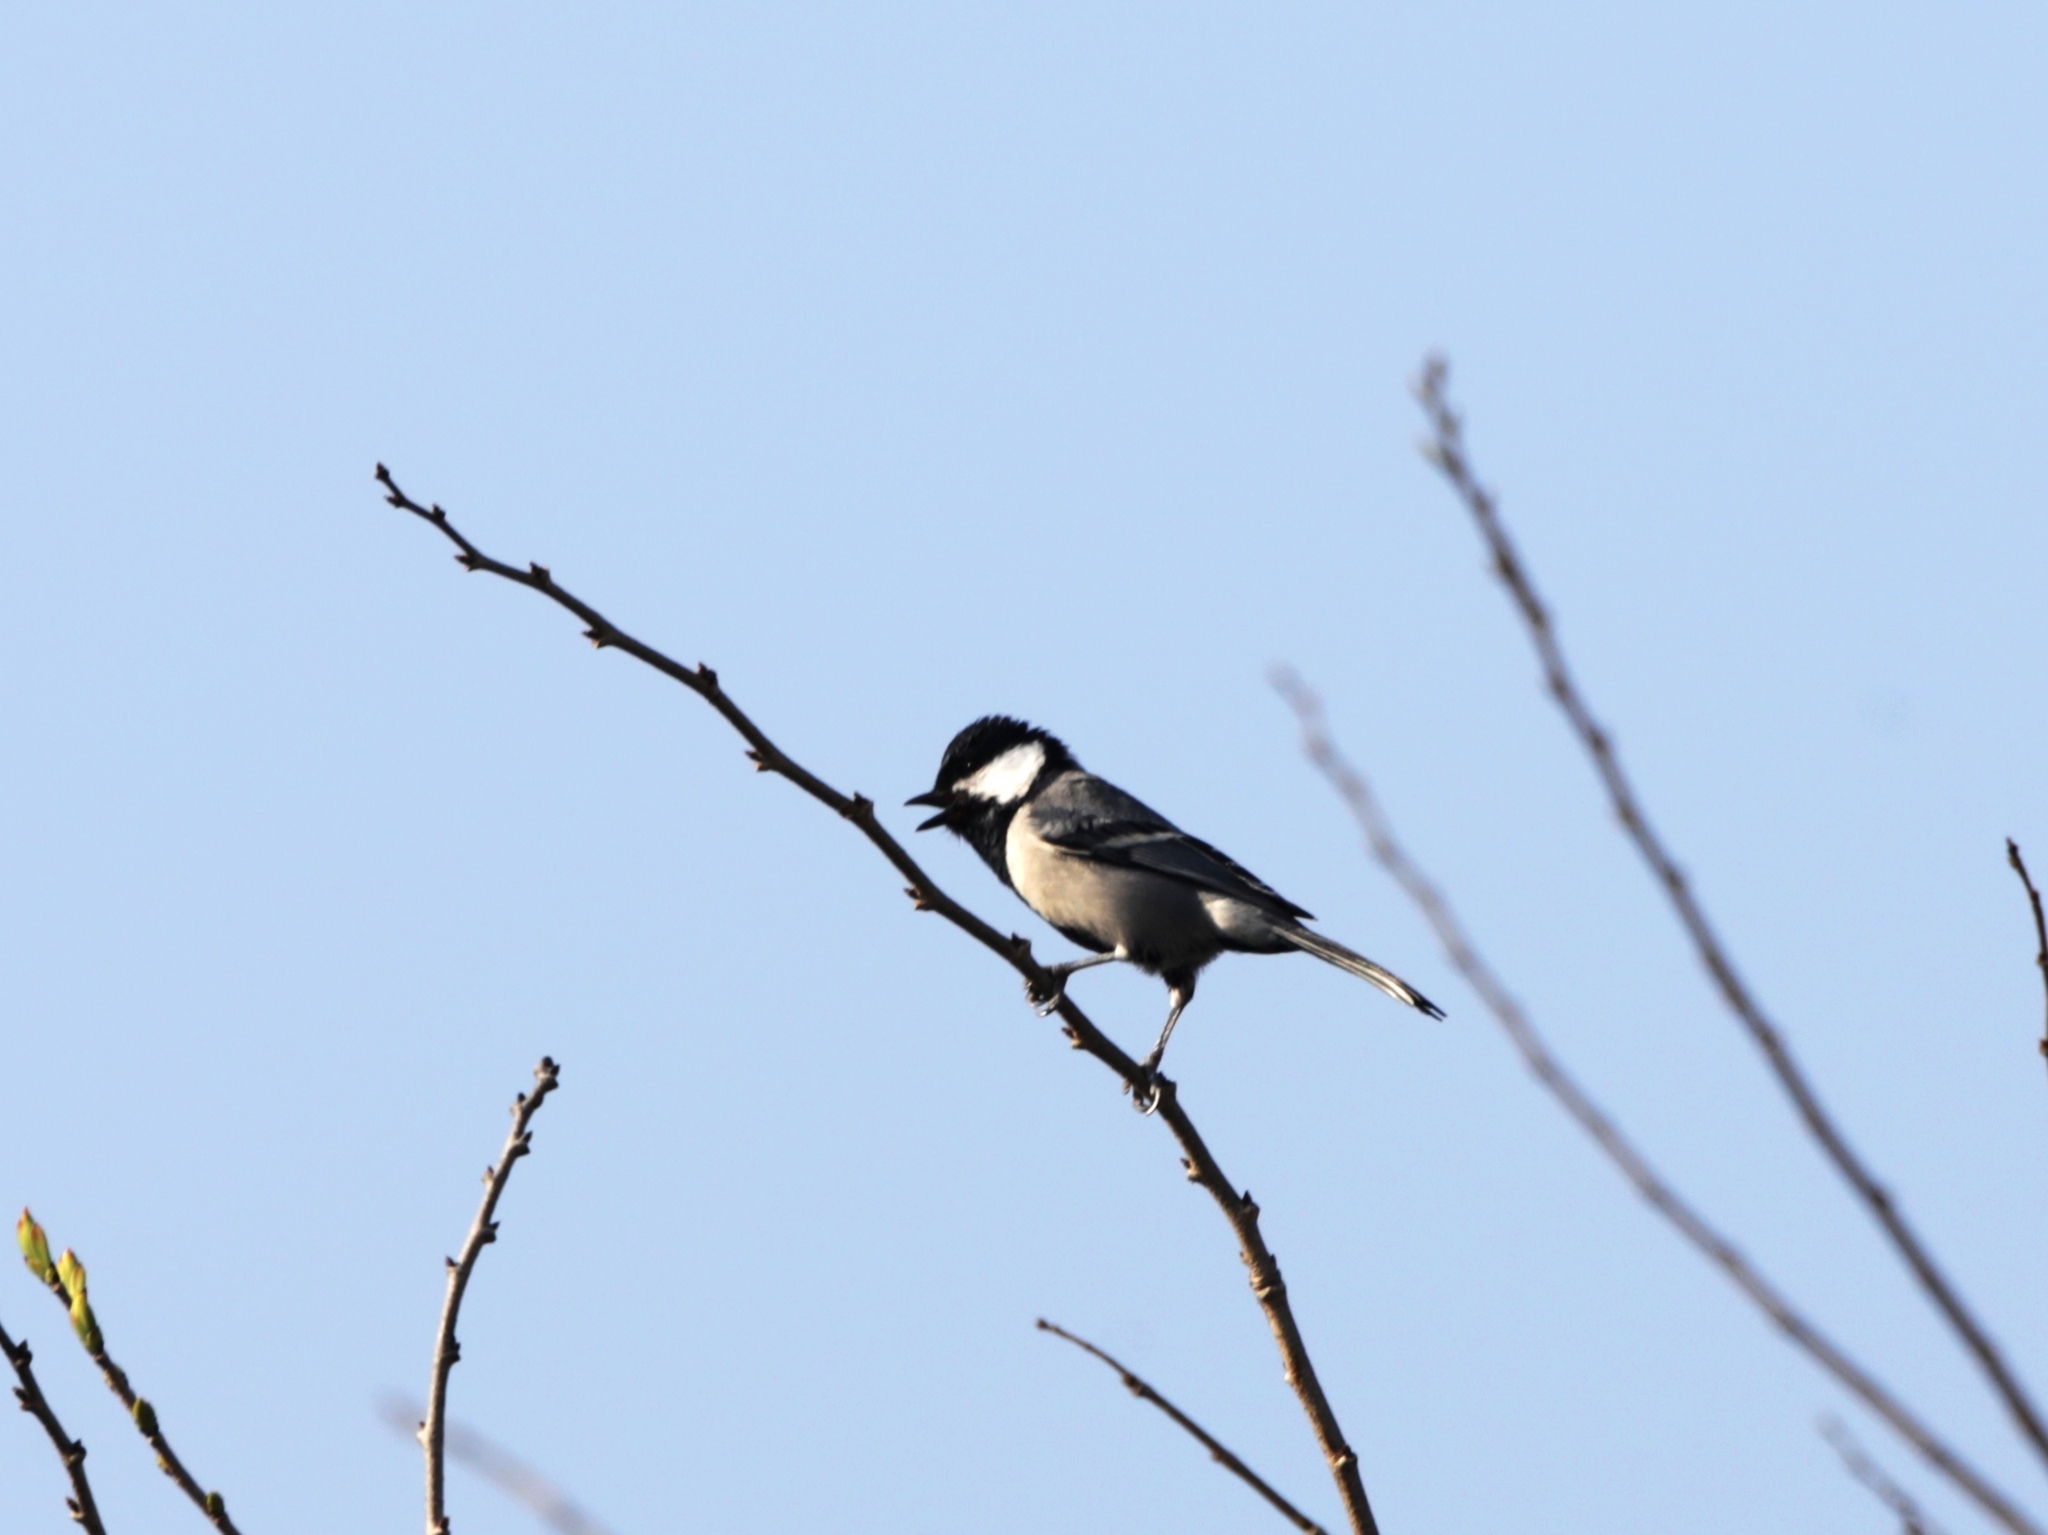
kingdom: Animalia
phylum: Chordata
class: Aves
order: Passeriformes
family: Paridae
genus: Parus
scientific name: Parus cinereus
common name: Cinereous tit
